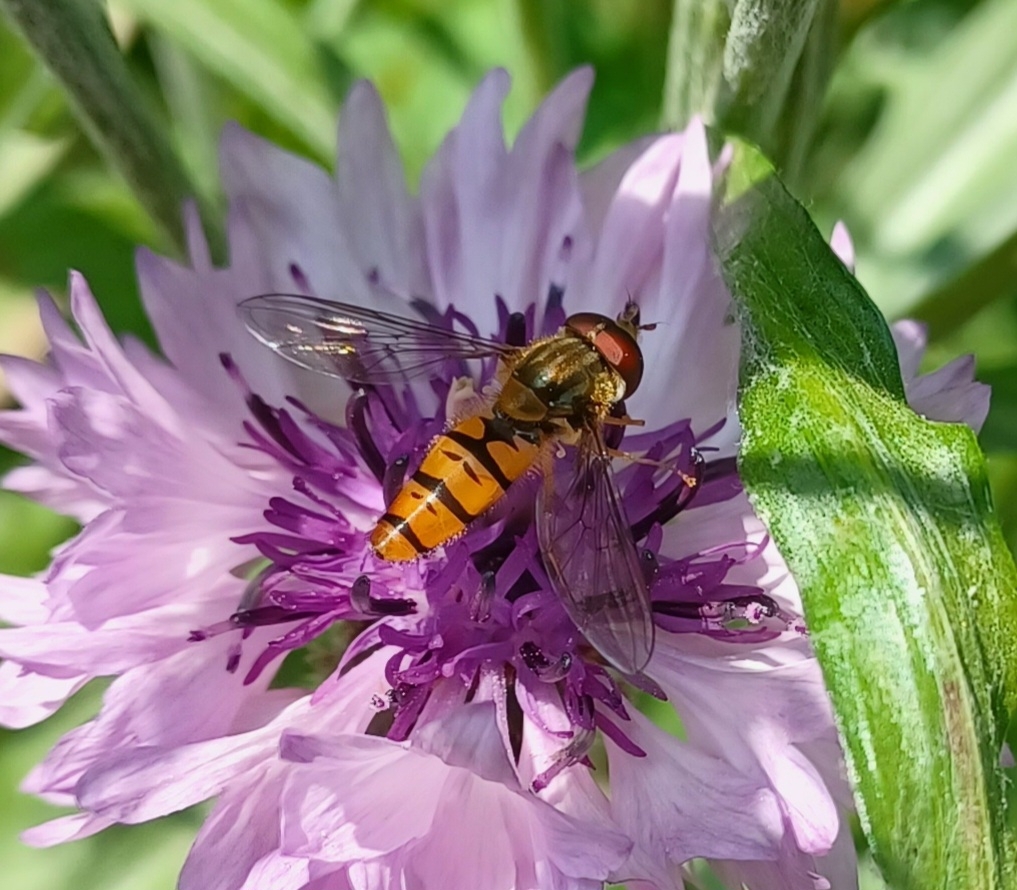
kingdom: Animalia
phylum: Arthropoda
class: Insecta
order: Diptera
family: Syrphidae
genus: Episyrphus
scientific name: Episyrphus balteatus
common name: Marmalade hoverfly
